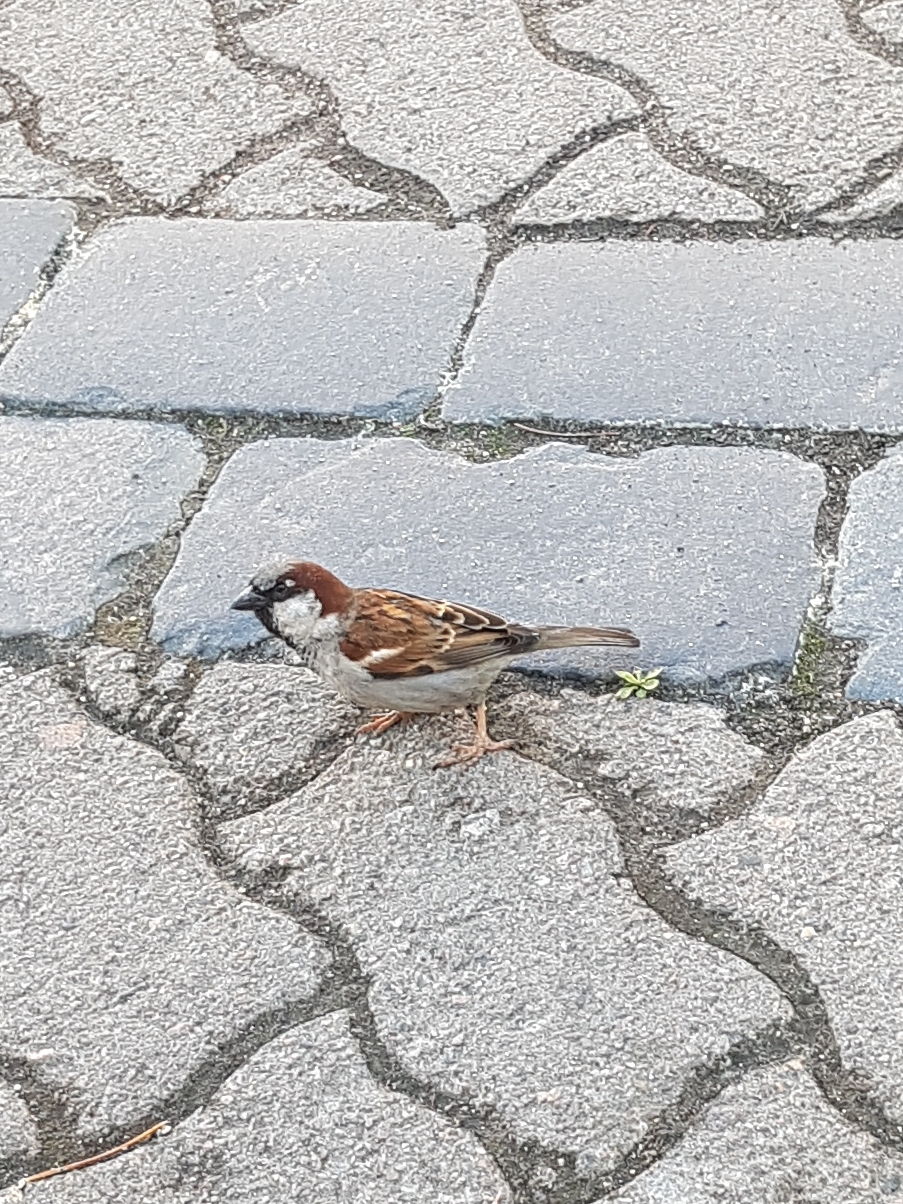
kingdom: Animalia
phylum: Chordata
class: Aves
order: Passeriformes
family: Passeridae
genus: Passer
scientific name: Passer domesticus
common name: House sparrow
